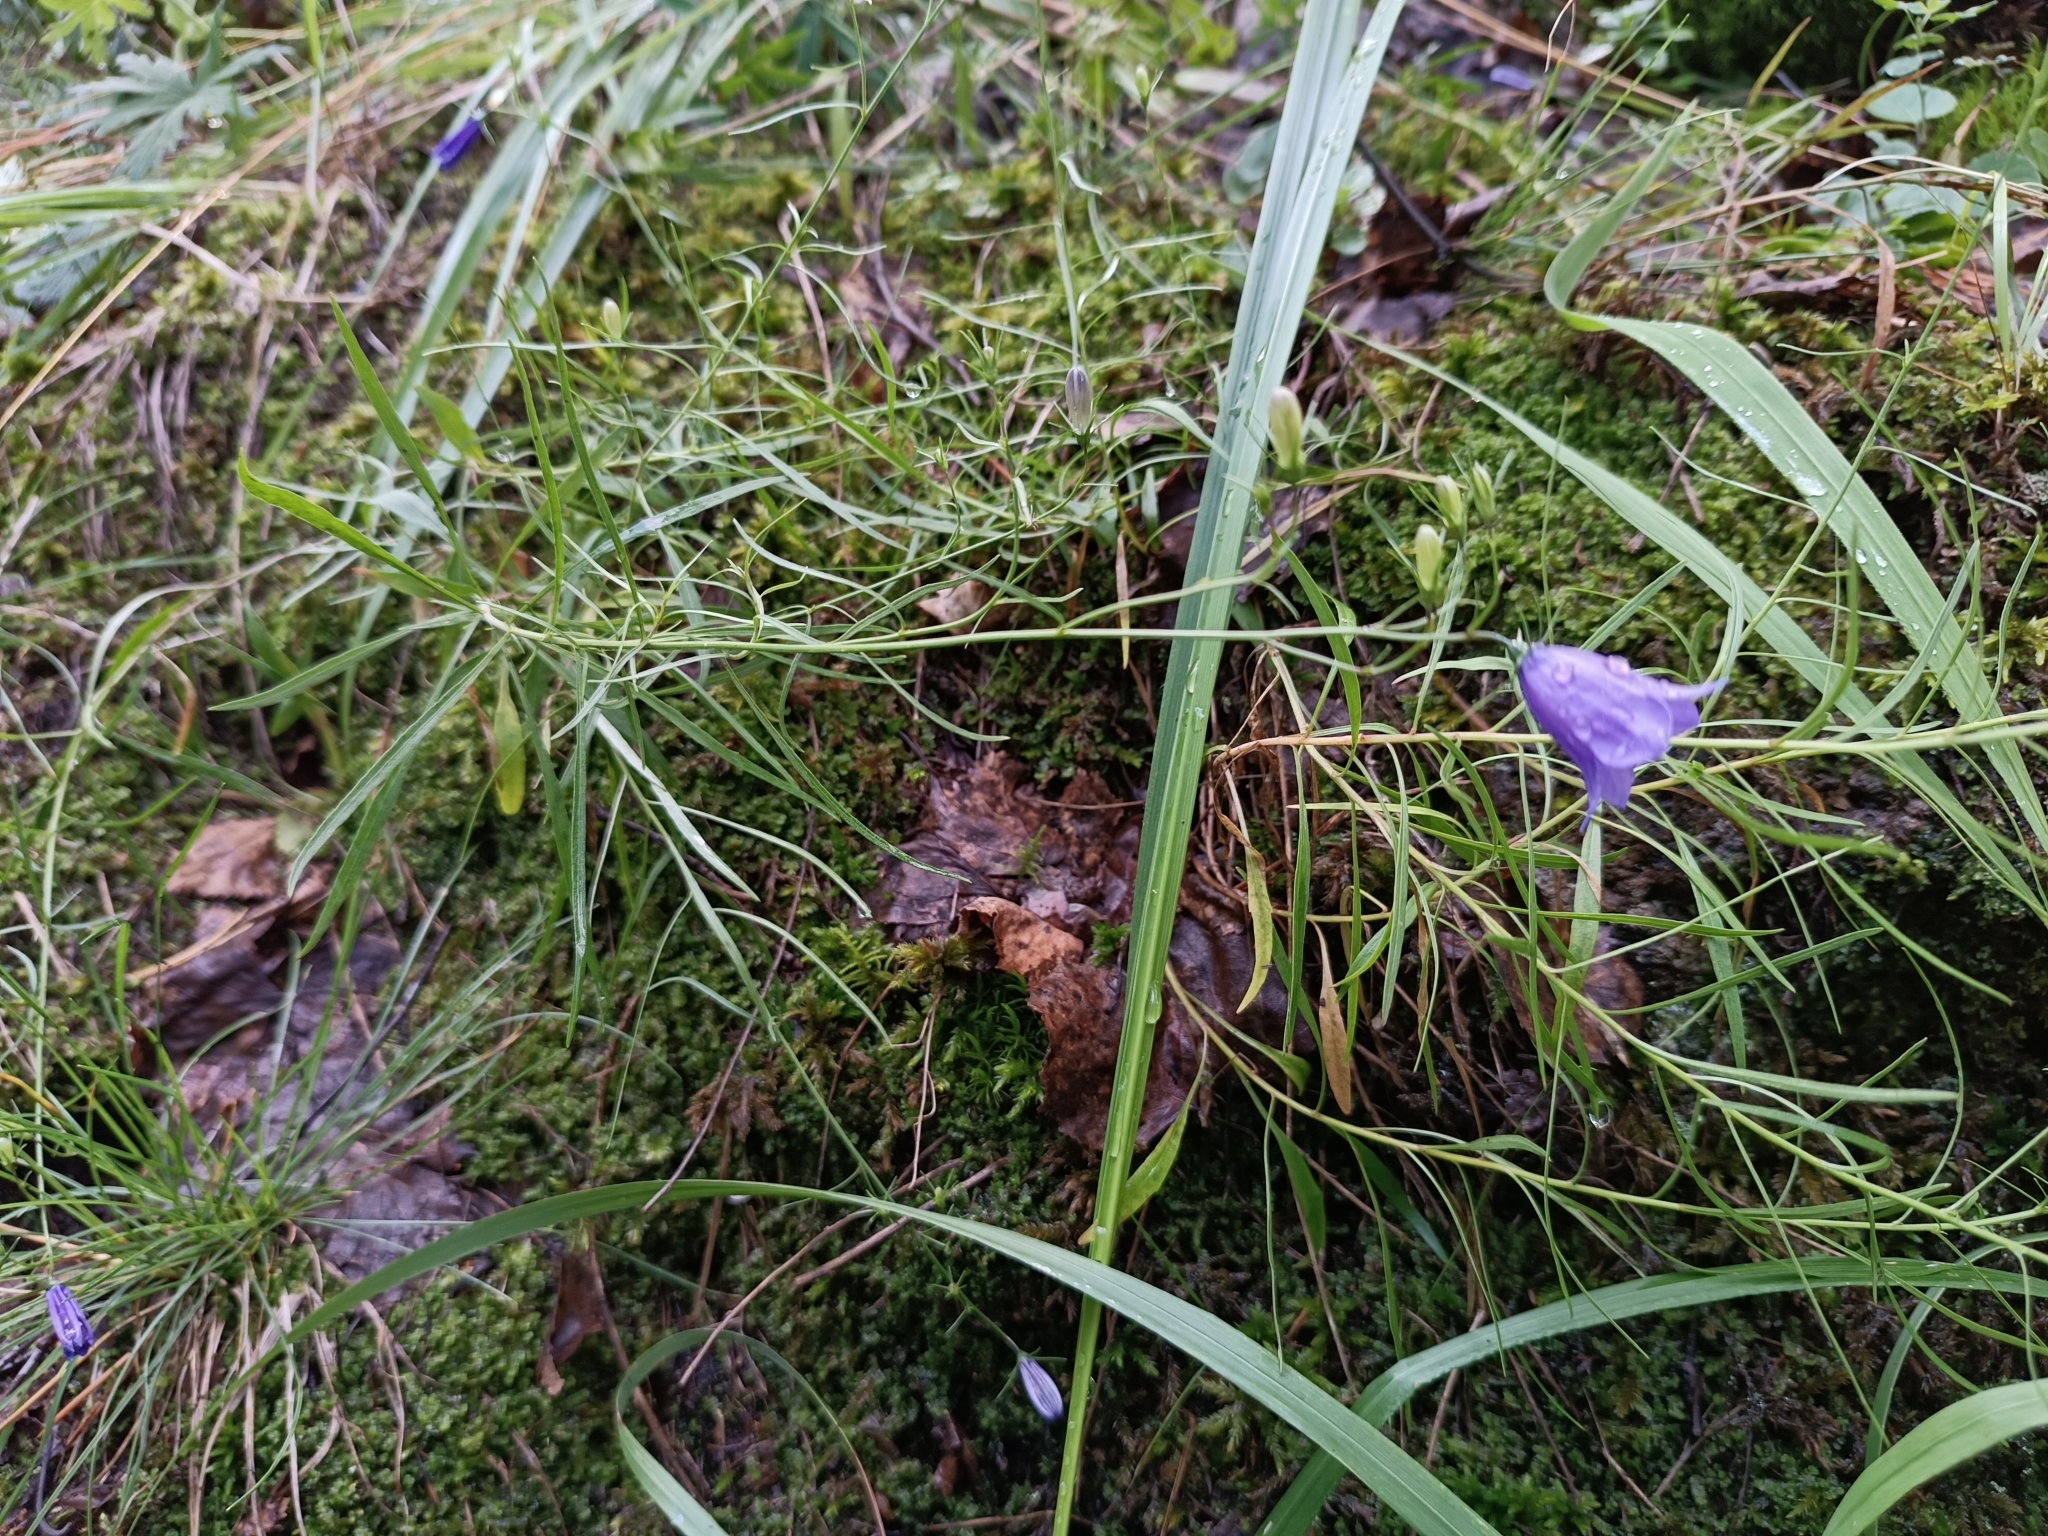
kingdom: Plantae
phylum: Tracheophyta
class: Magnoliopsida
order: Asterales
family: Campanulaceae
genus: Campanula
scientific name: Campanula rotundifolia
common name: Harebell
